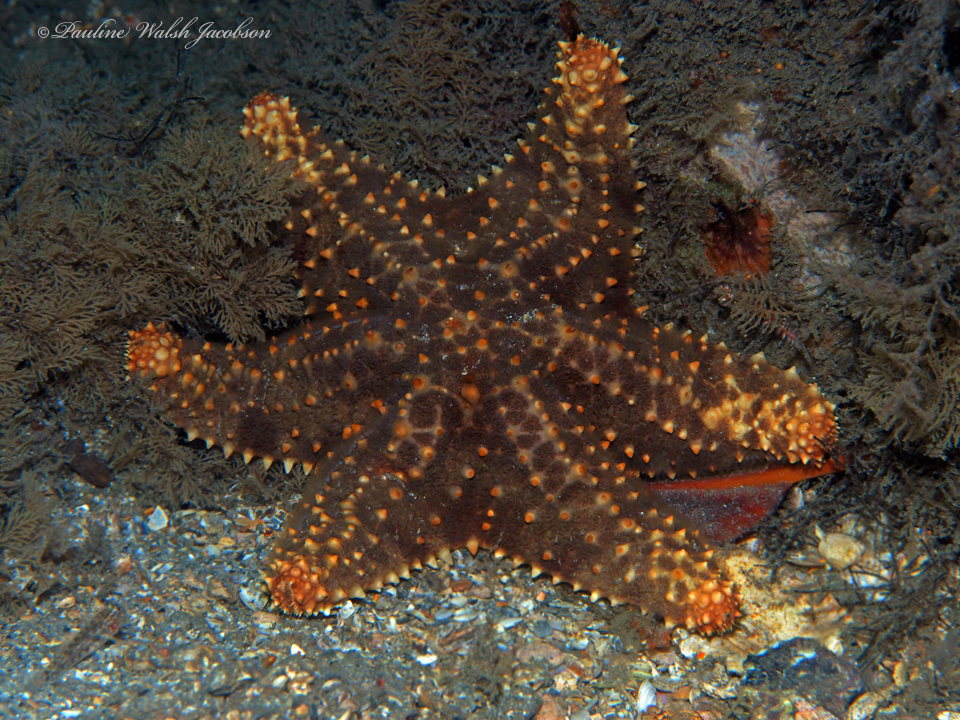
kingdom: Animalia
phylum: Echinodermata
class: Asteroidea
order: Valvatida
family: Oreasteridae
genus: Oreaster
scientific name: Oreaster reticulatus
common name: Cushion sea star
